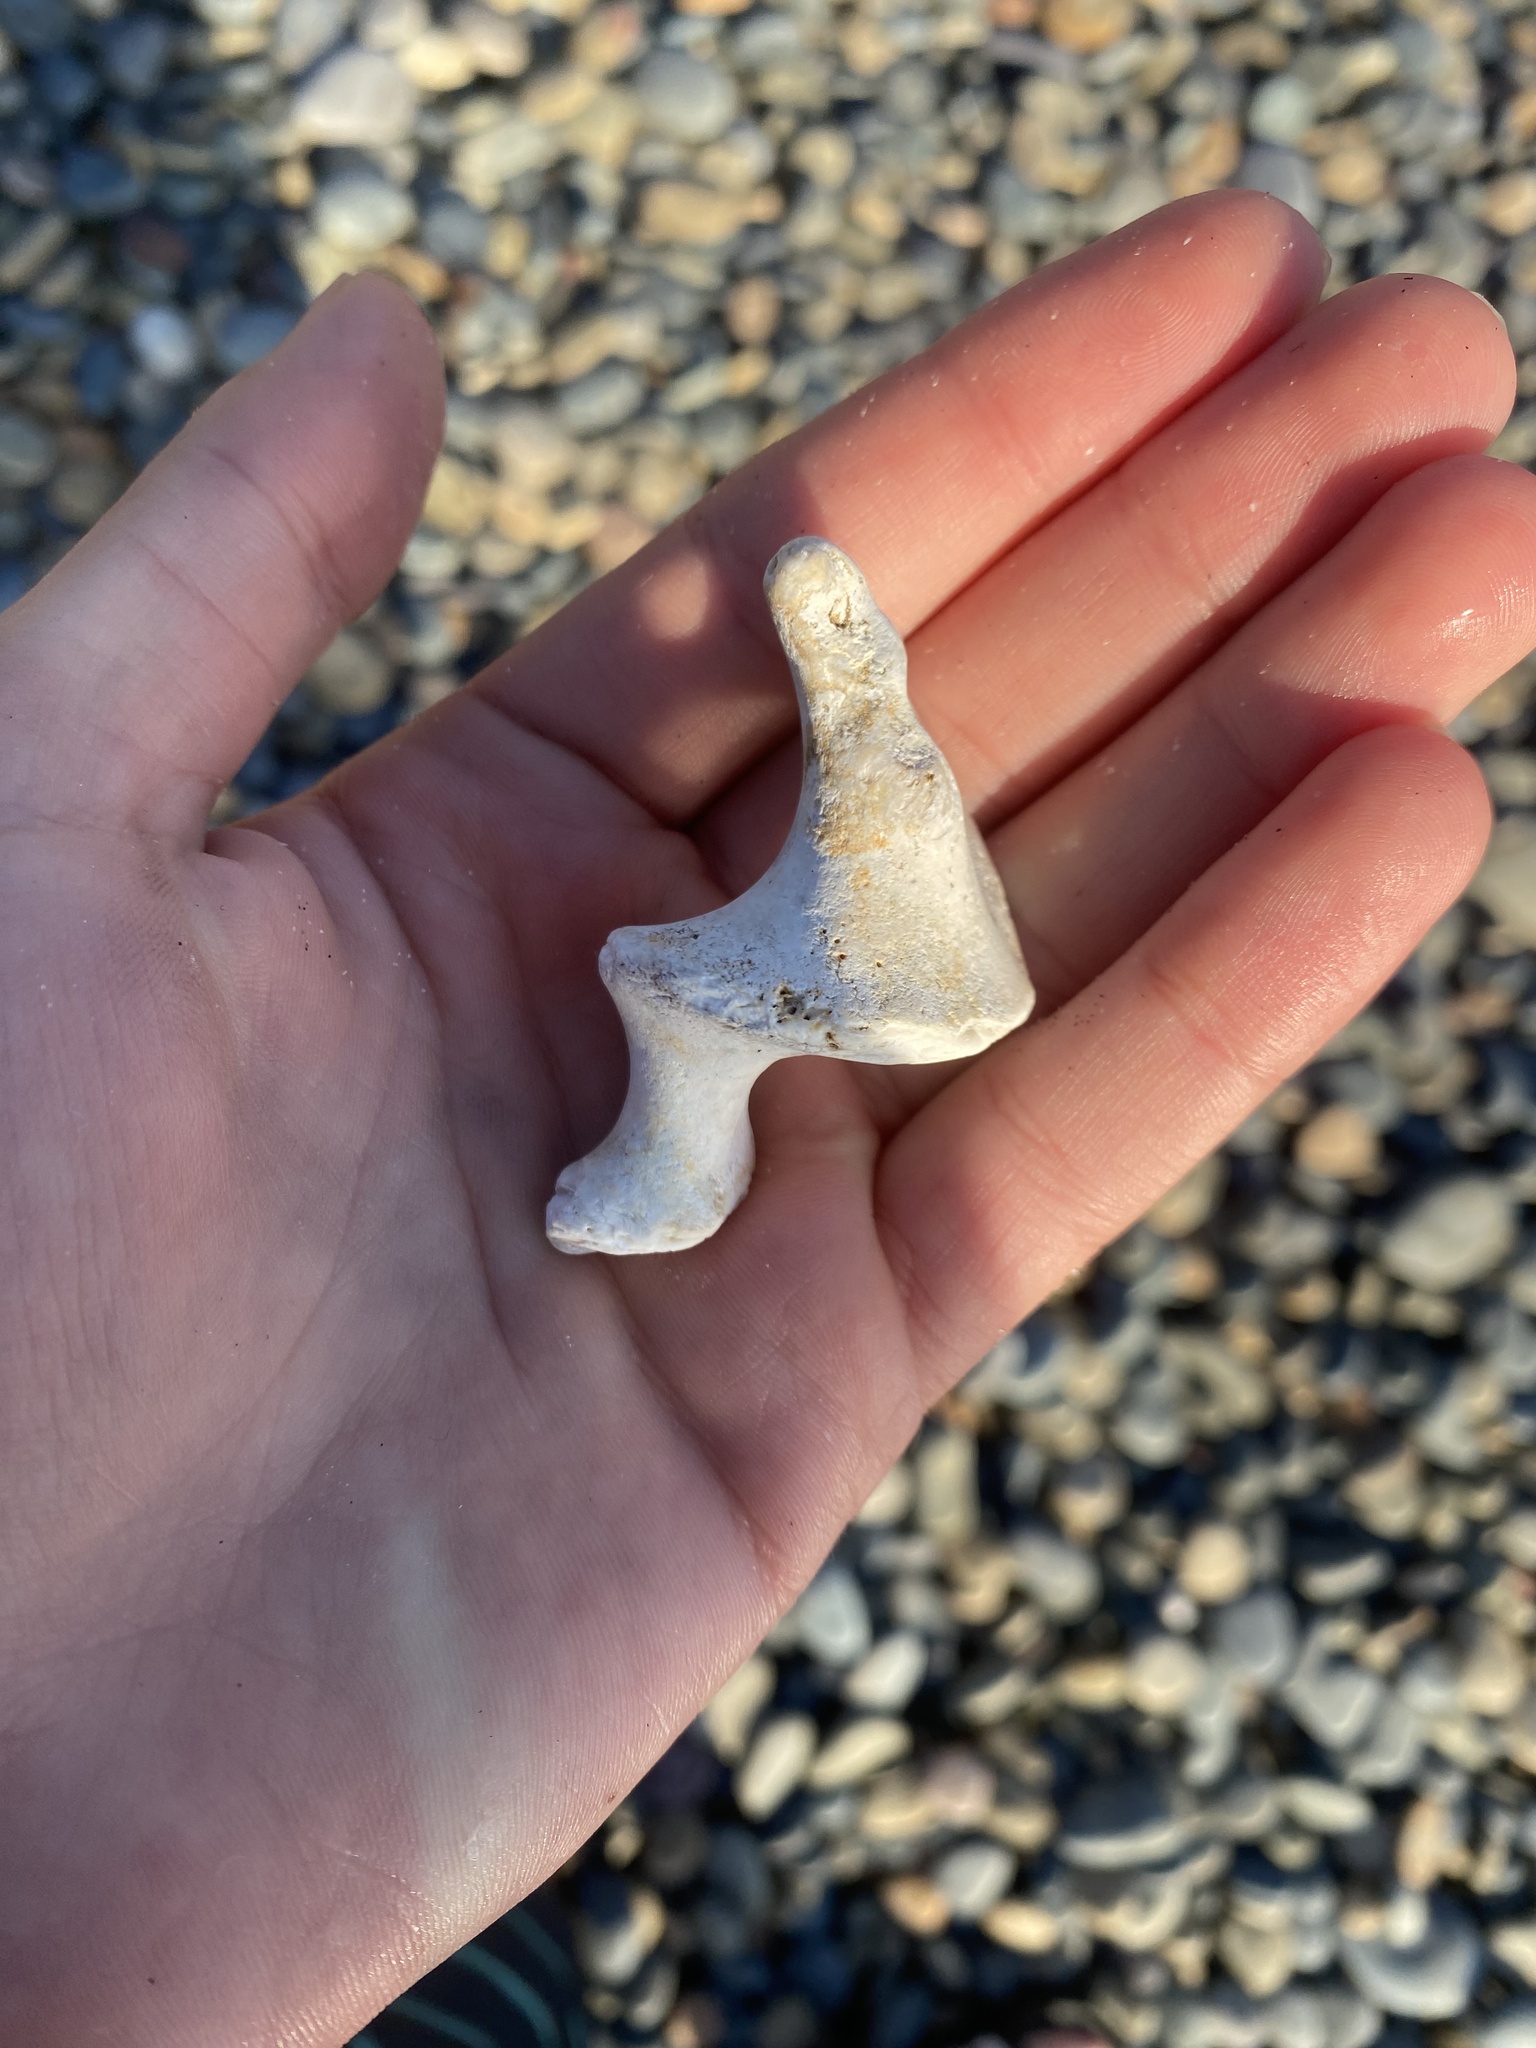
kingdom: Animalia
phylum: Mollusca
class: Gastropoda
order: Trochida
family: Turbinidae
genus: Megastraea
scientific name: Megastraea undosa
